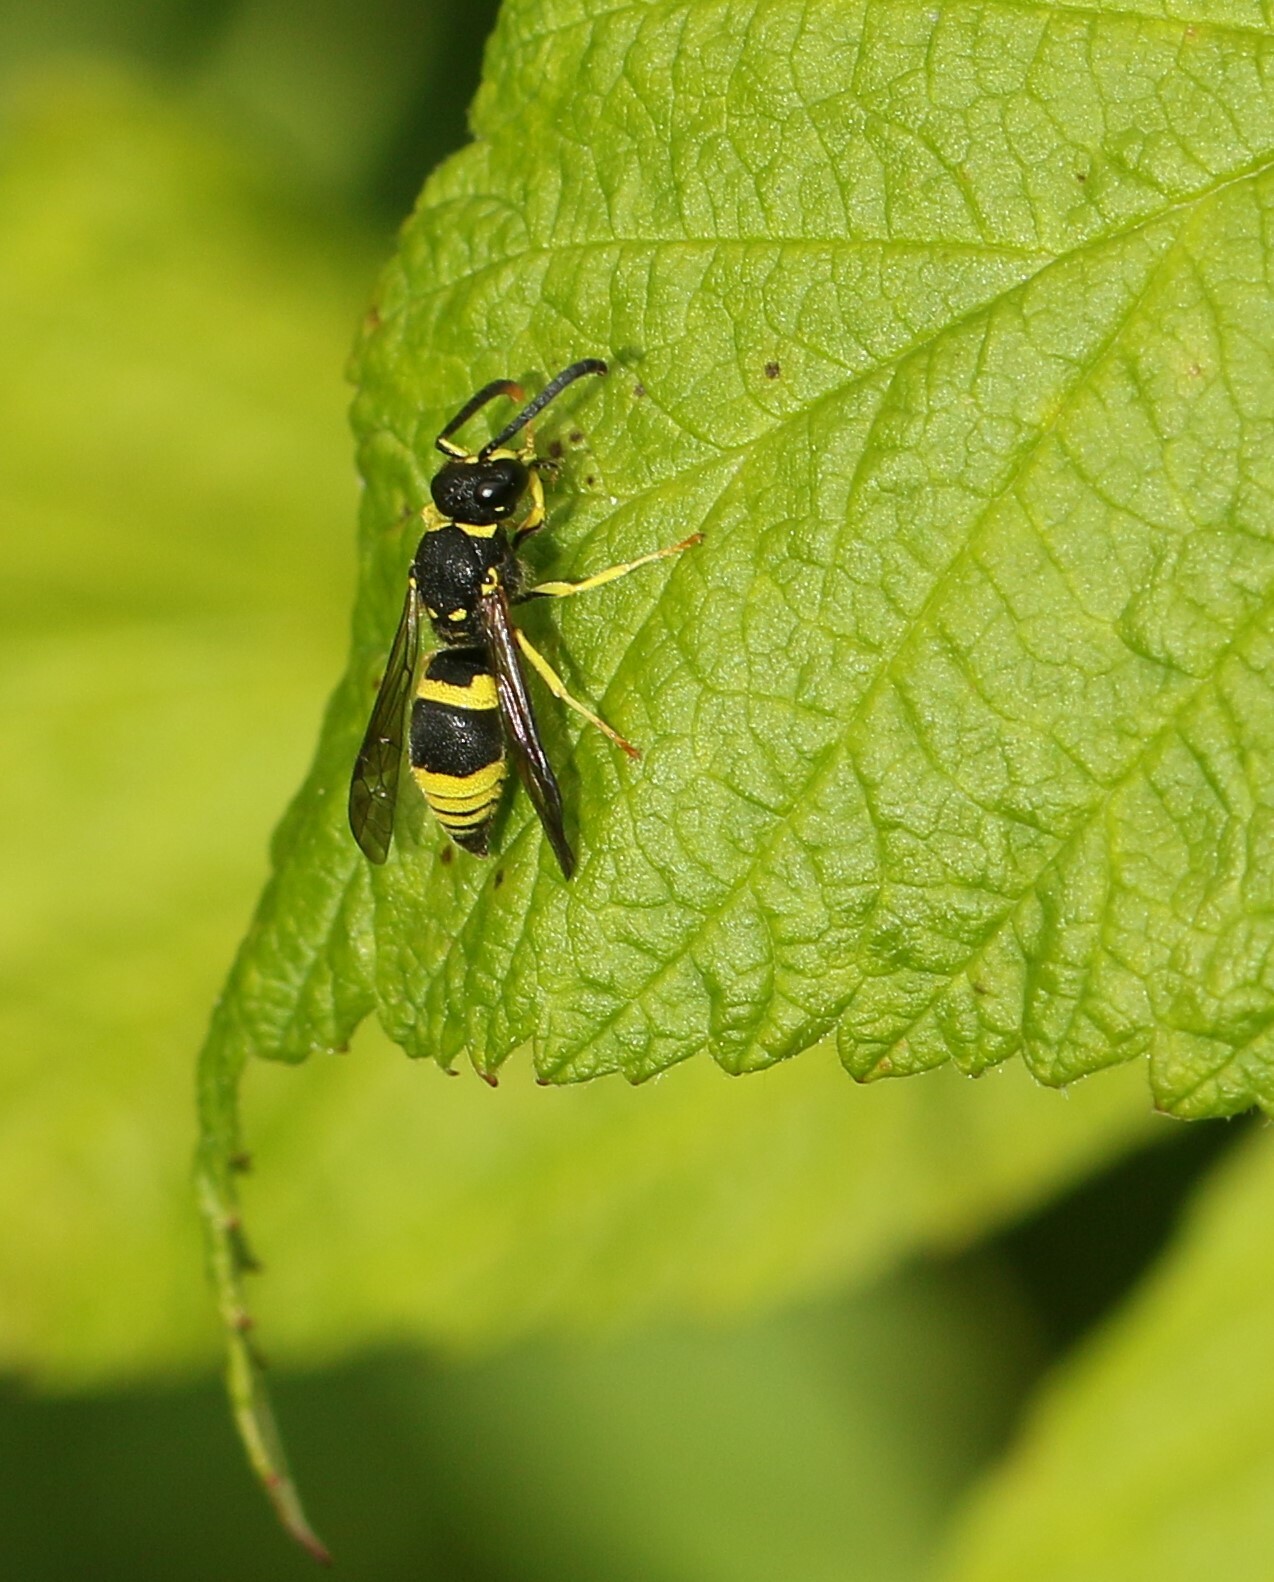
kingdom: Animalia
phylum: Arthropoda
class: Insecta
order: Hymenoptera
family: Vespidae
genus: Ancistrocerus
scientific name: Ancistrocerus gazella
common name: European tube wasp
